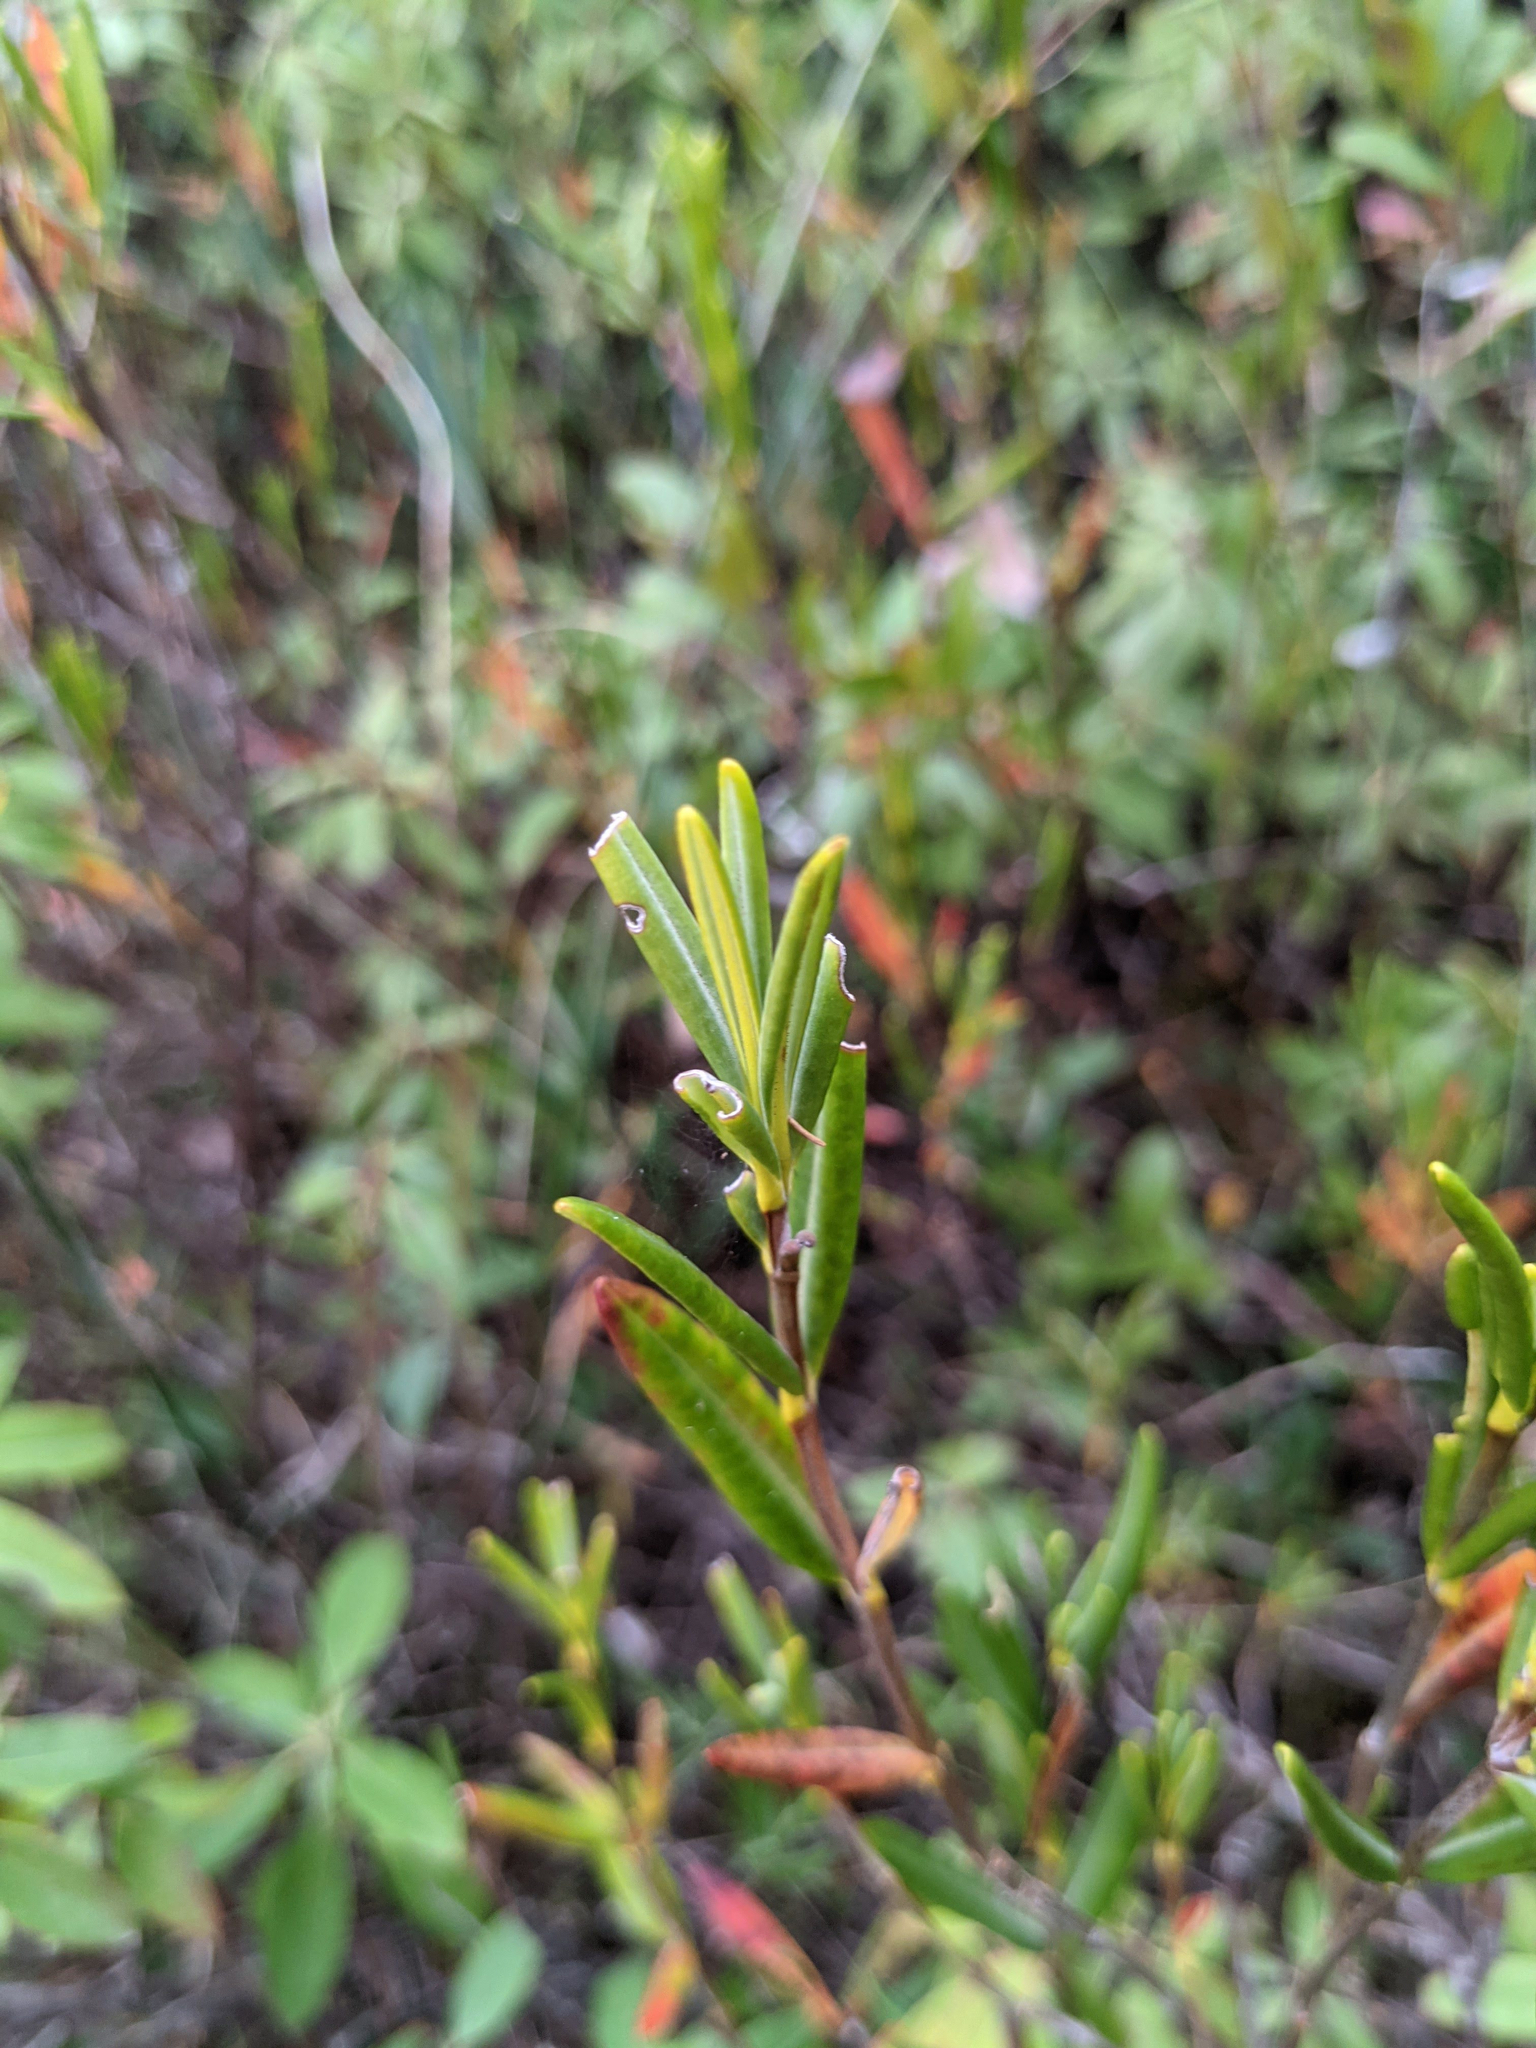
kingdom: Plantae
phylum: Tracheophyta
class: Magnoliopsida
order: Ericales
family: Ericaceae
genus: Kalmia
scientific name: Kalmia polifolia
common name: Bog-laurel
